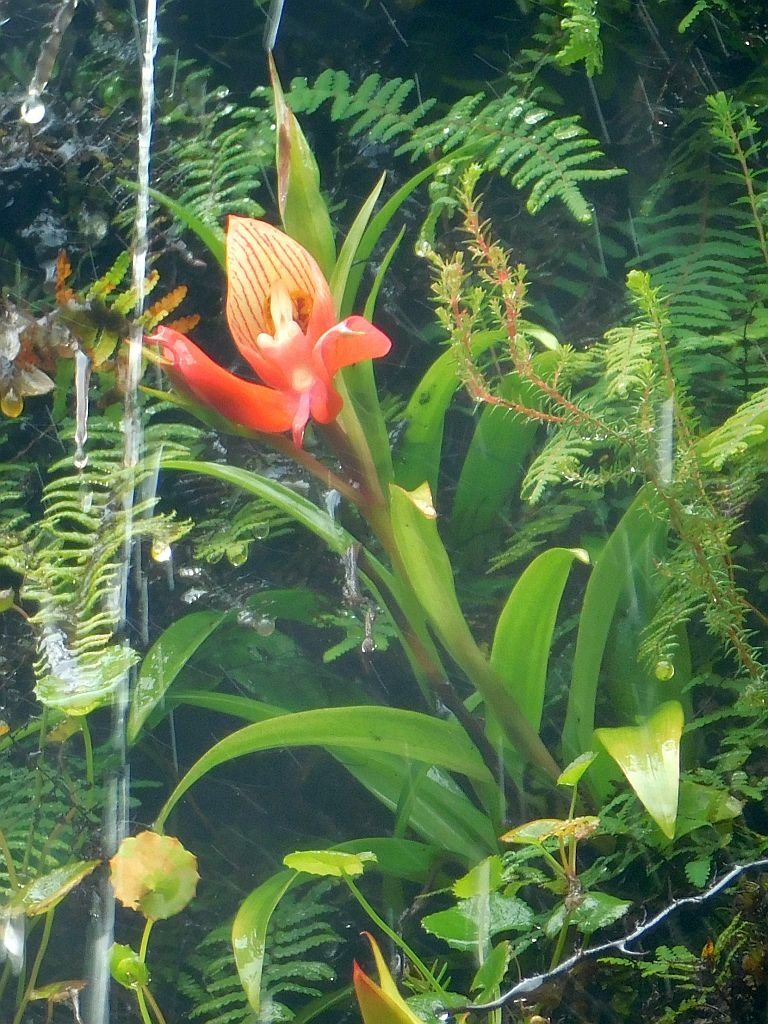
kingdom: Plantae
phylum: Tracheophyta
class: Liliopsida
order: Asparagales
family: Orchidaceae
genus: Disa
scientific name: Disa uniflora
